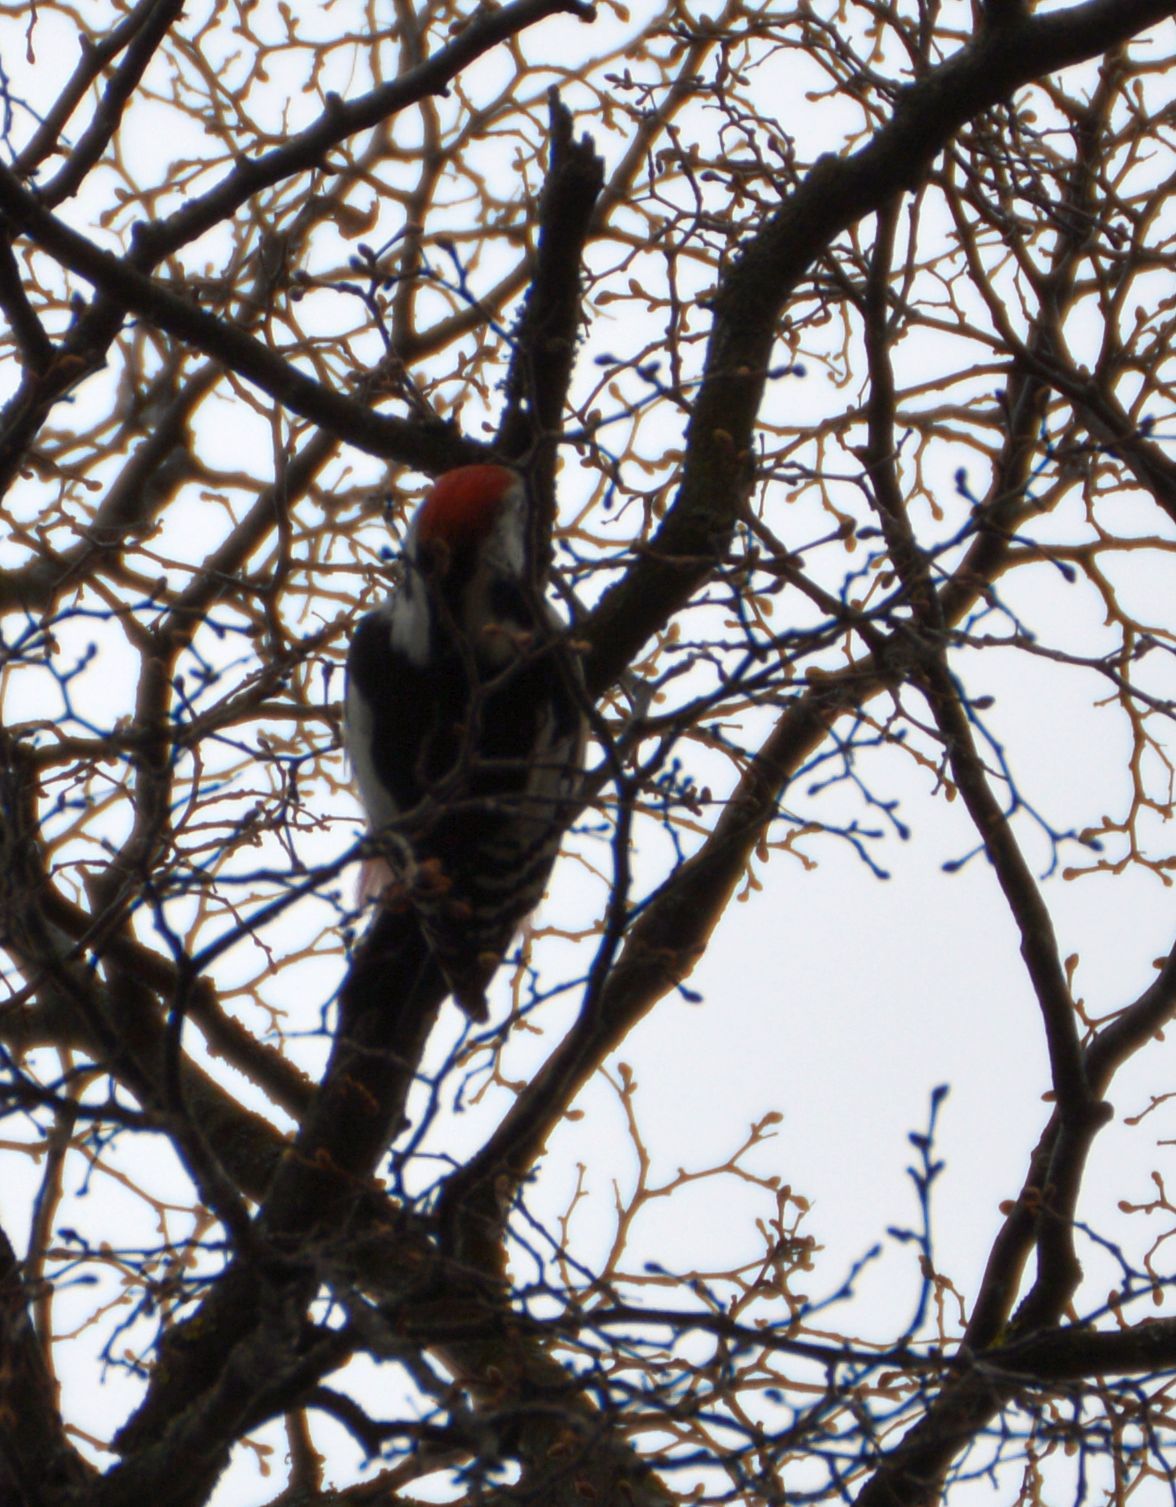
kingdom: Animalia
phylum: Chordata
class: Aves
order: Piciformes
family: Picidae
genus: Dendrocoptes
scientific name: Dendrocoptes medius
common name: Middle spotted woodpecker
